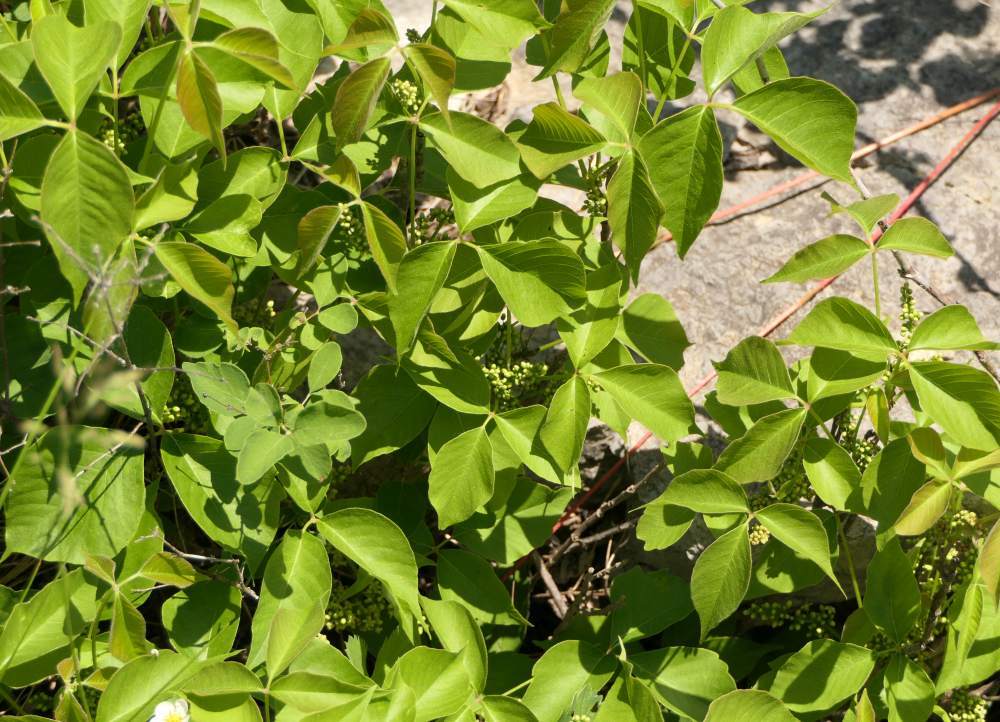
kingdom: Plantae
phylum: Tracheophyta
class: Magnoliopsida
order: Sapindales
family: Anacardiaceae
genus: Toxicodendron
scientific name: Toxicodendron radicans
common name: Poison ivy
